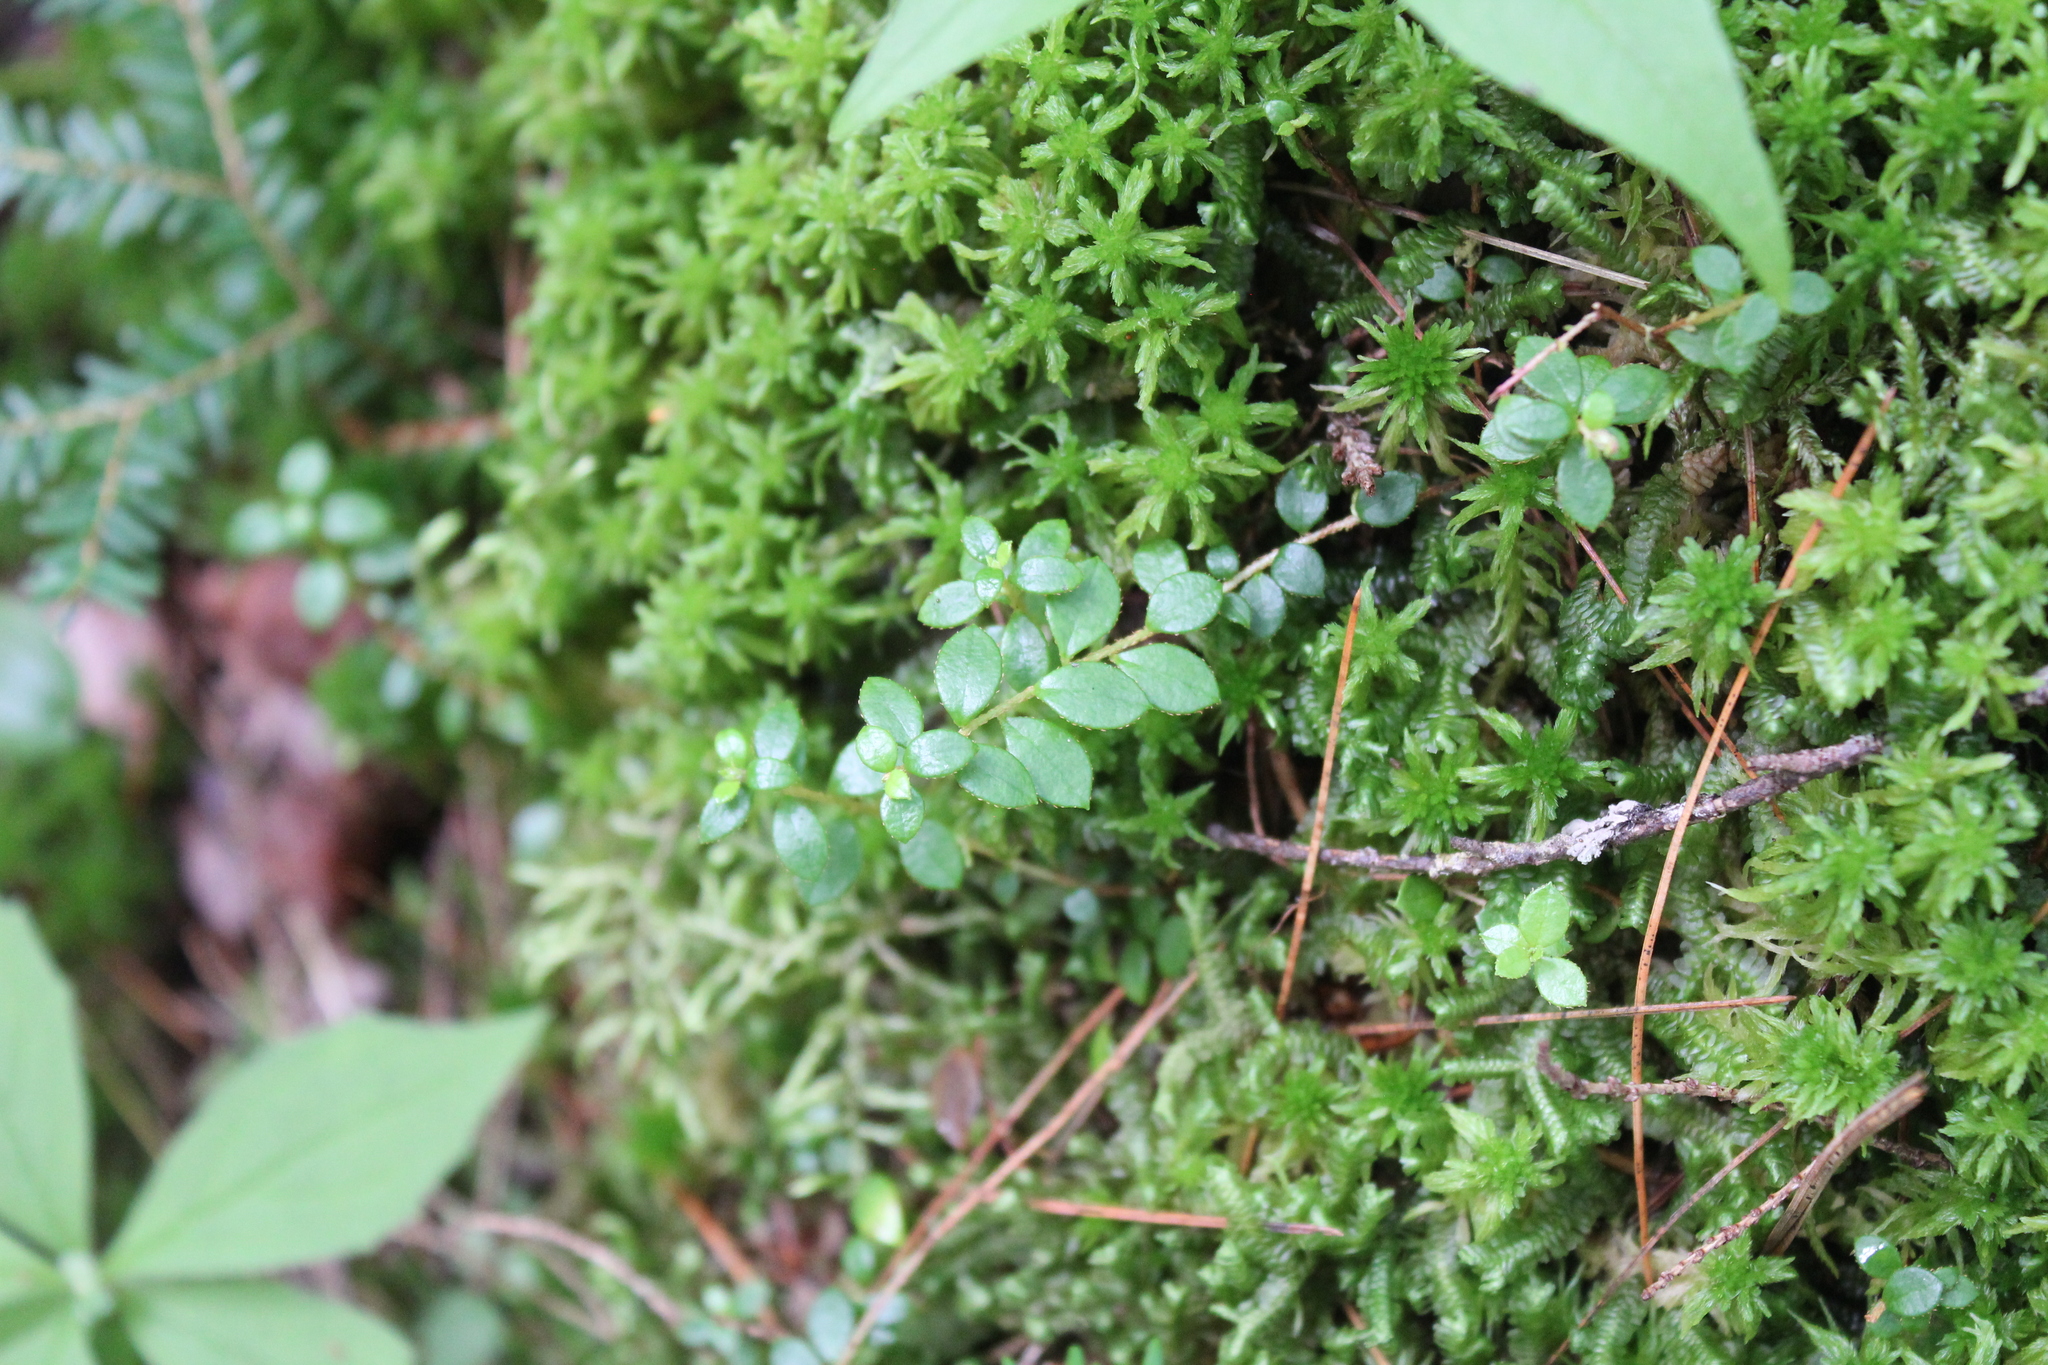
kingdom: Plantae
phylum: Tracheophyta
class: Magnoliopsida
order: Ericales
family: Ericaceae
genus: Gaultheria
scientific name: Gaultheria hispidula
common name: Cancer wintergreen
